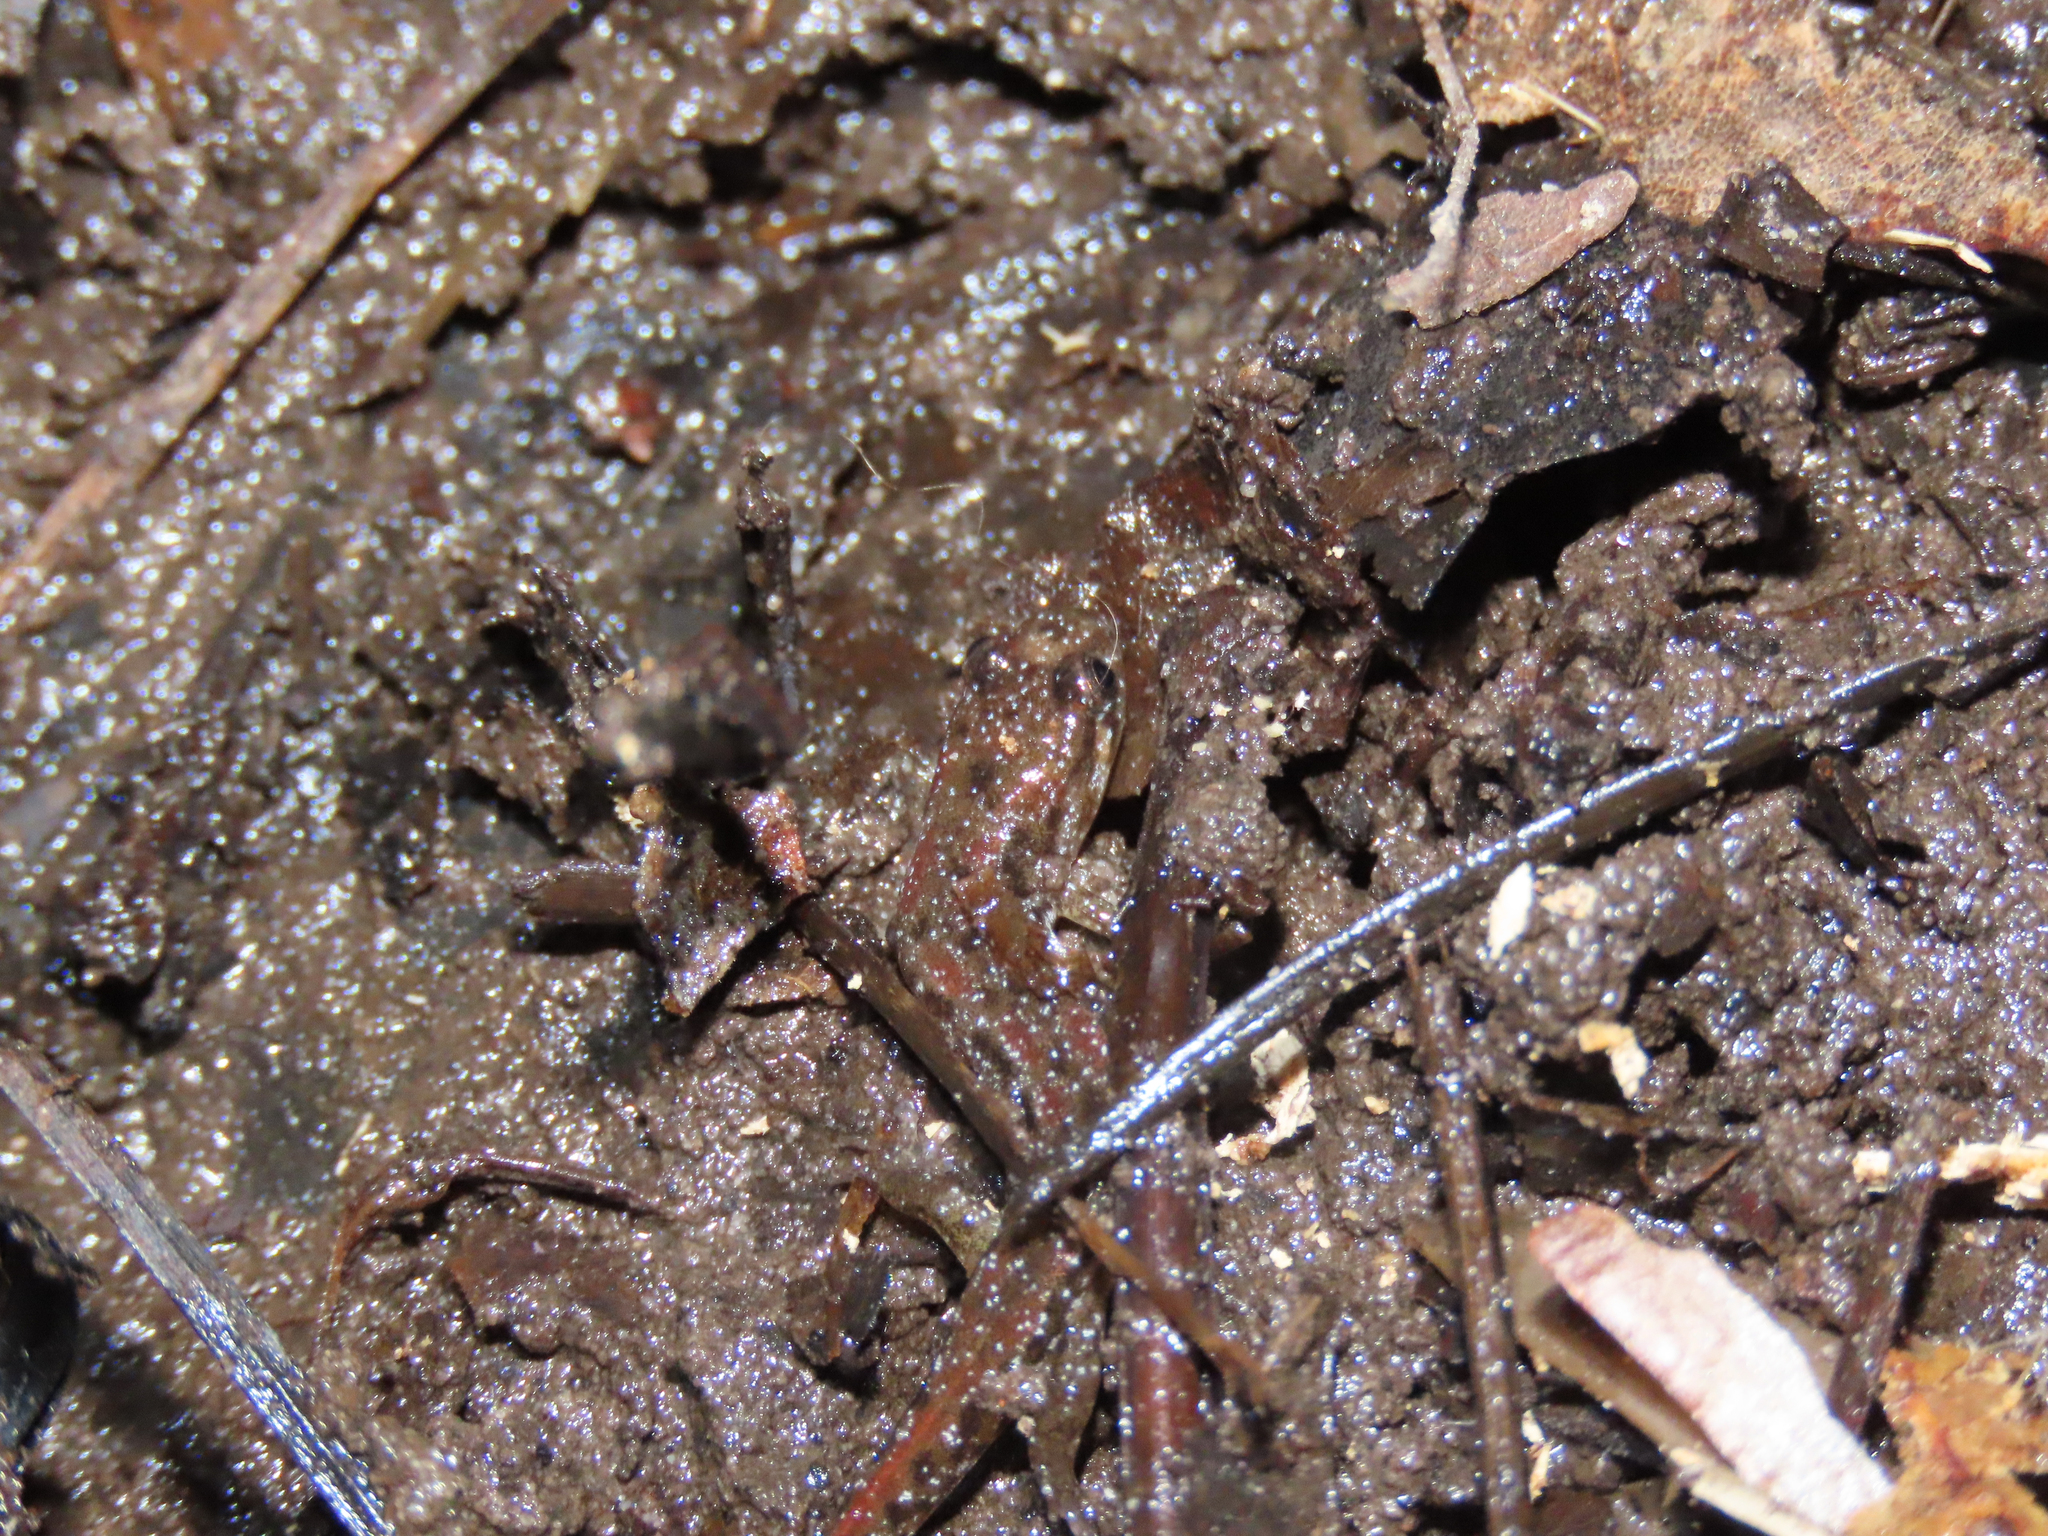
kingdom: Animalia
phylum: Chordata
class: Amphibia
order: Caudata
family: Plethodontidae
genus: Desmognathus
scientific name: Desmognathus fuscus
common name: Northern dusky salamander
